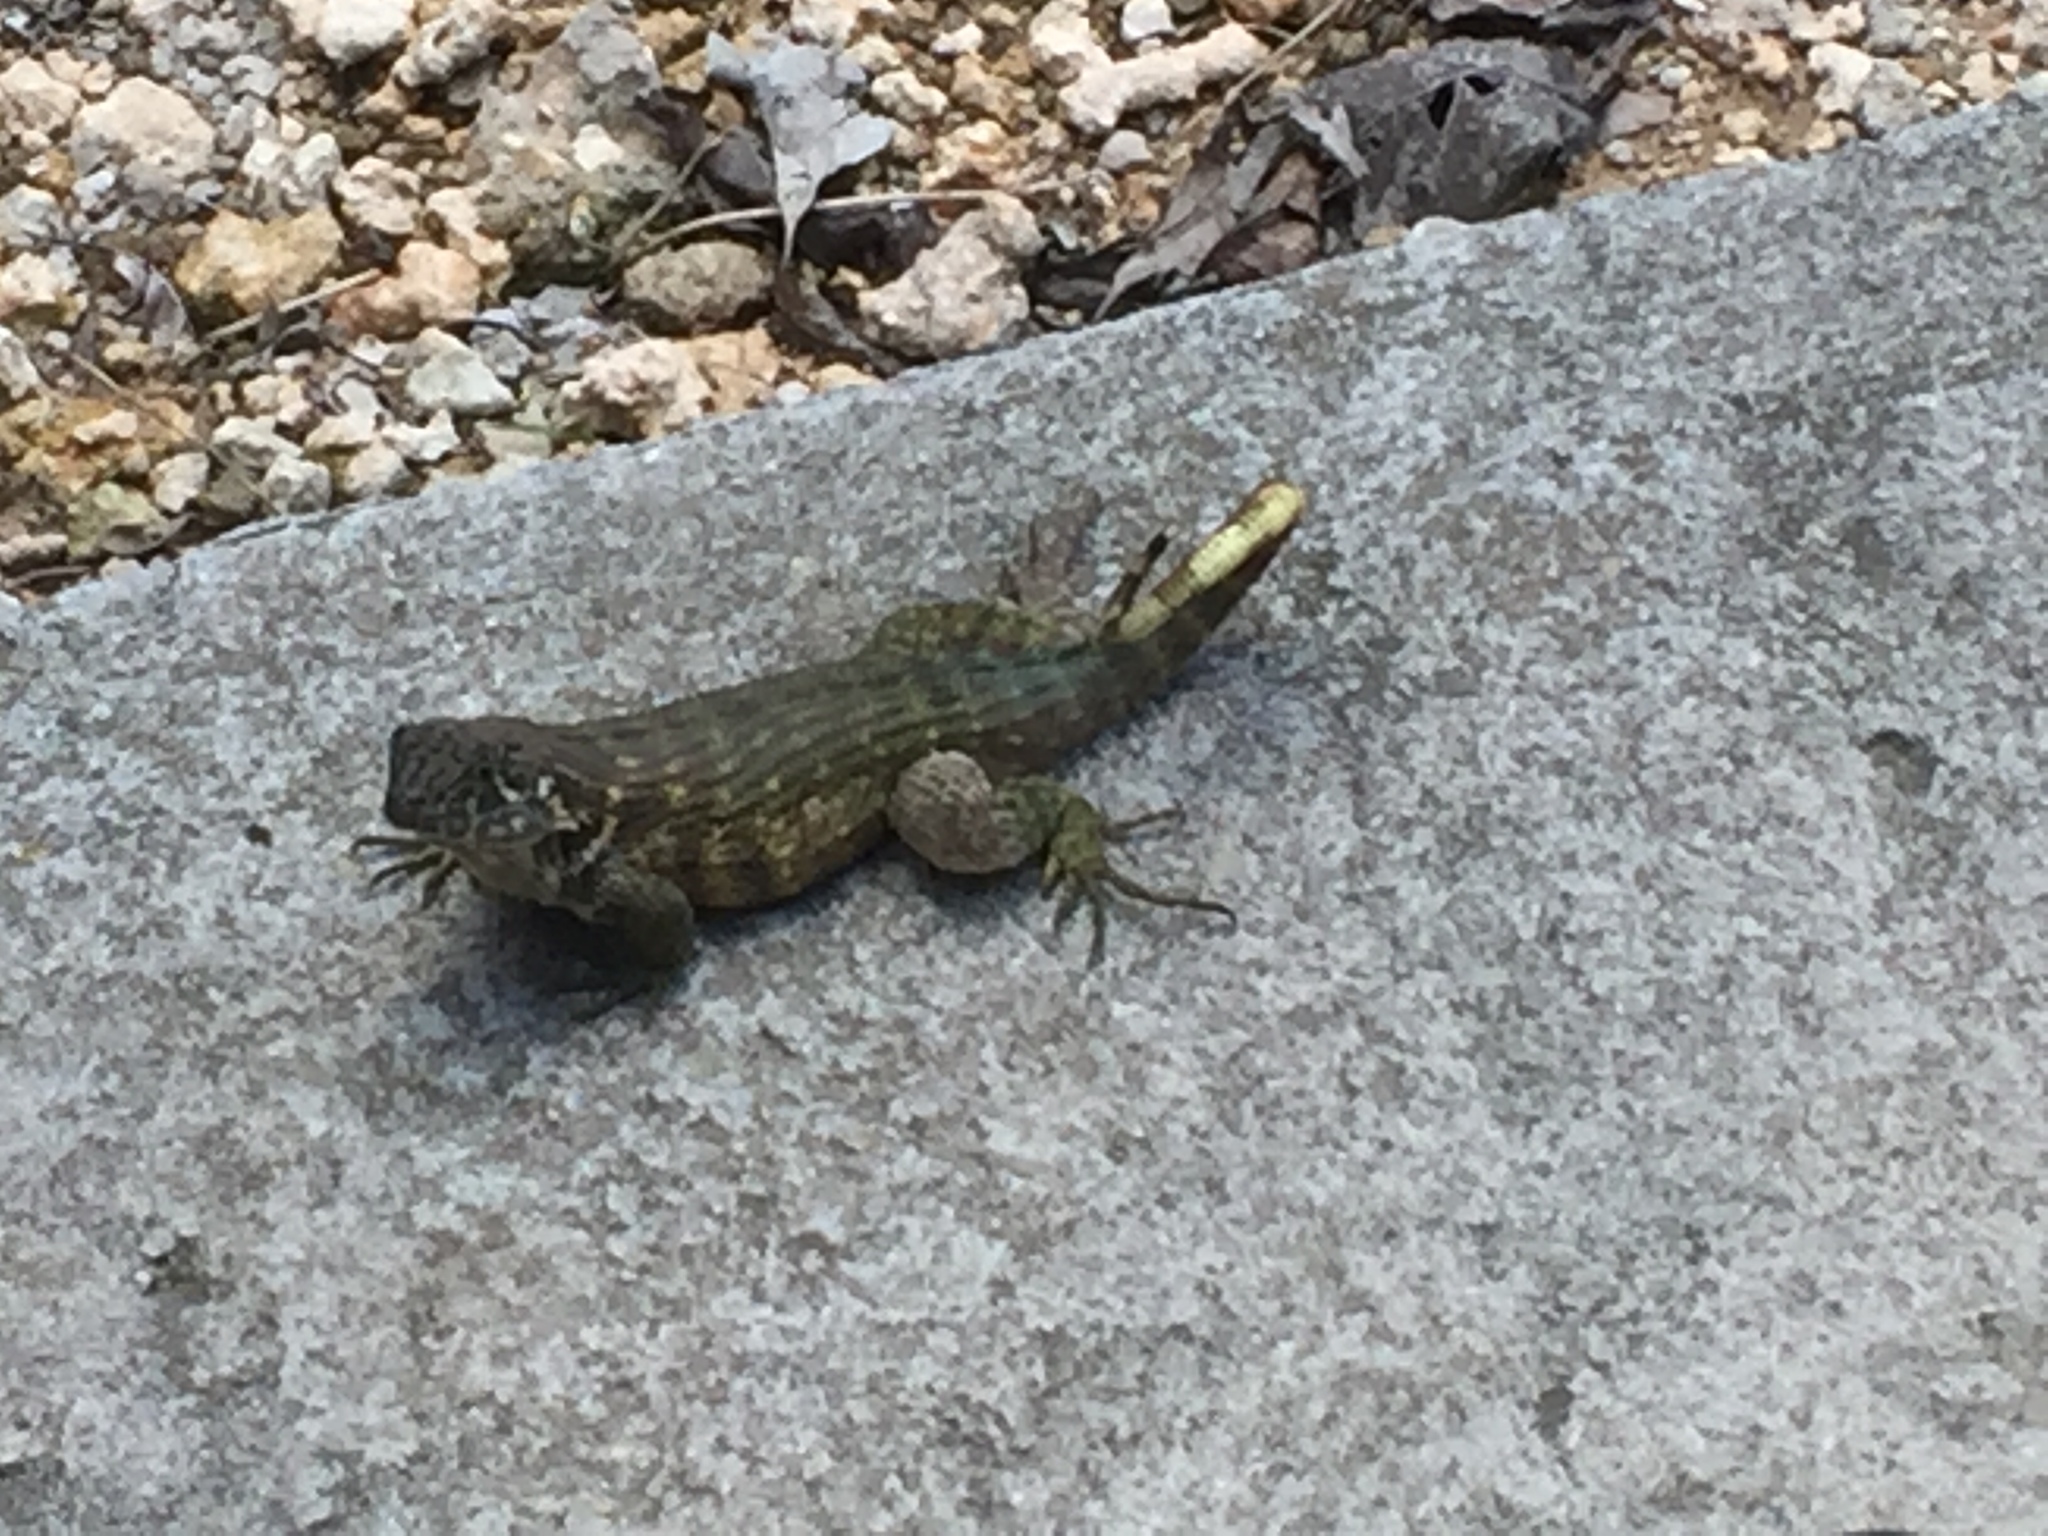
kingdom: Animalia
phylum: Chordata
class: Squamata
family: Leiocephalidae
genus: Leiocephalus
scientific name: Leiocephalus carinatus
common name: Northern curly-tailed lizard
